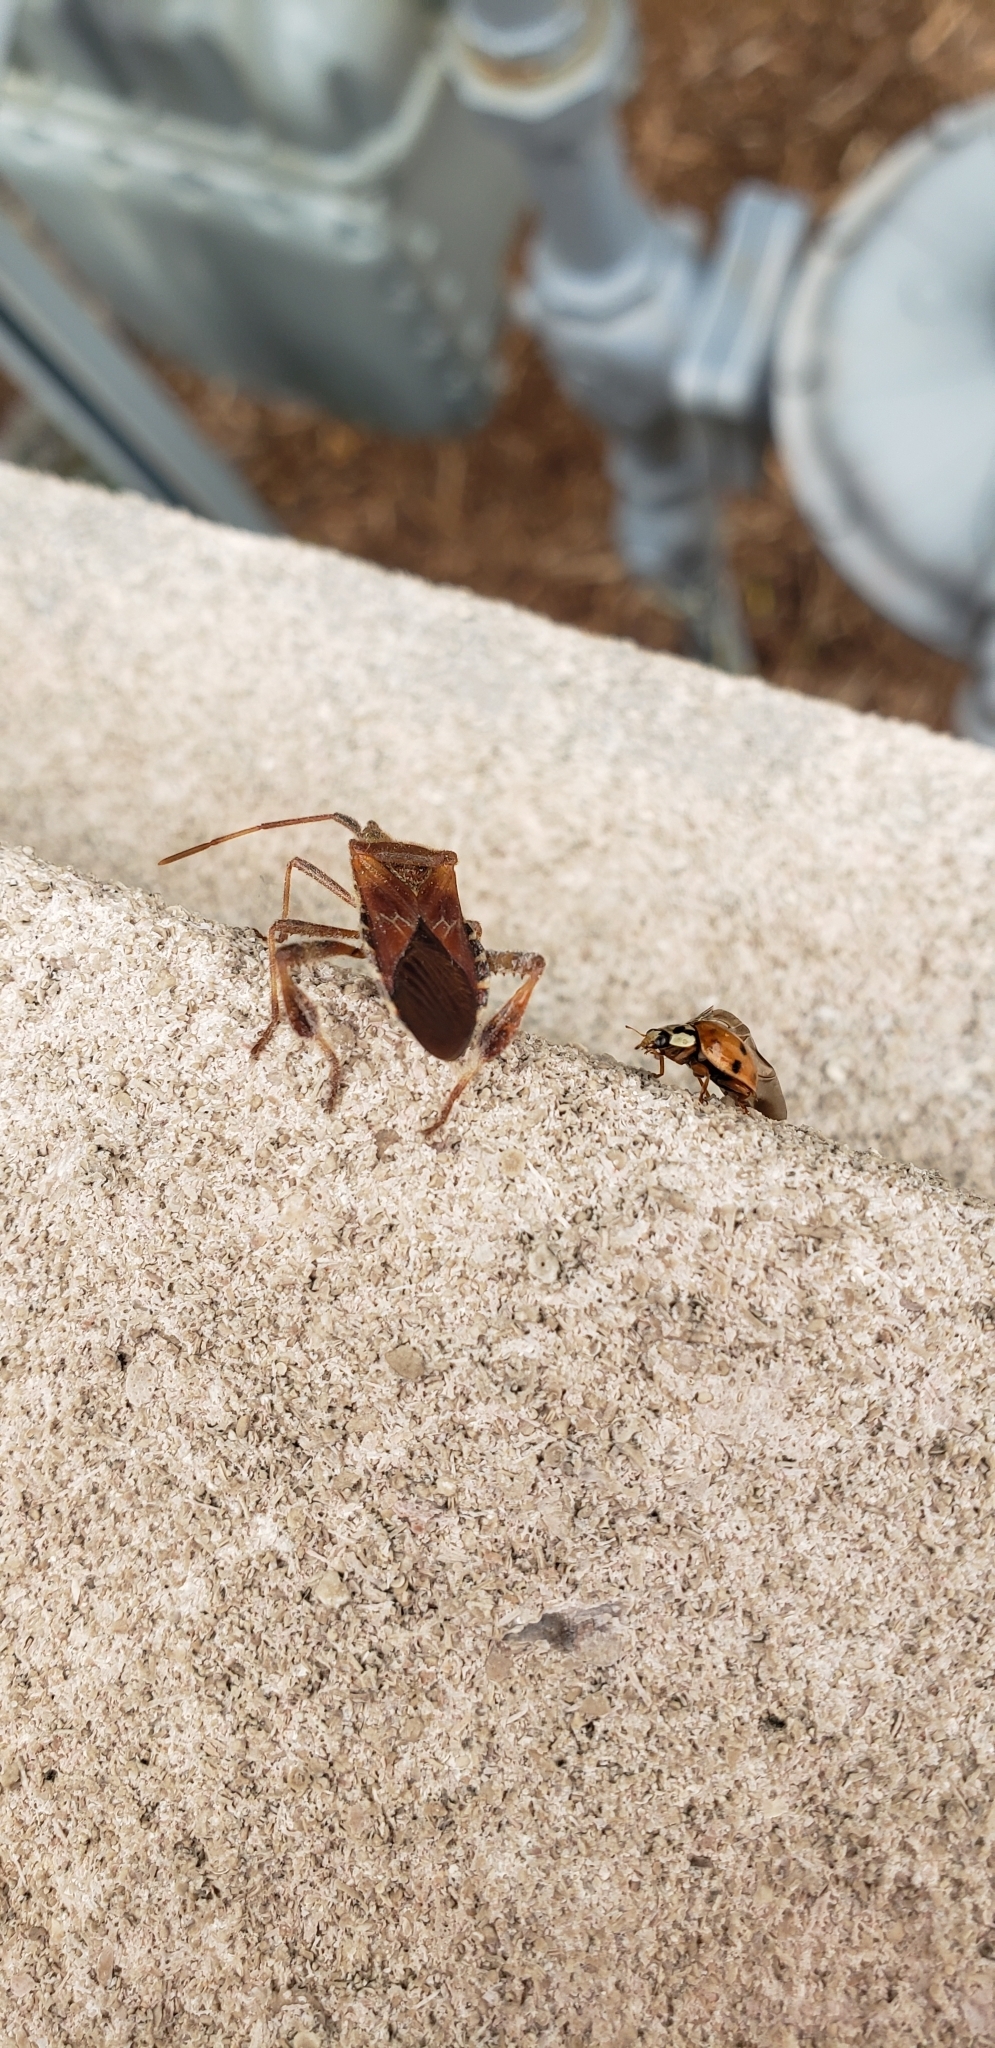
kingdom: Animalia
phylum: Arthropoda
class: Insecta
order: Coleoptera
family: Coccinellidae
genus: Harmonia
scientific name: Harmonia axyridis
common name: Harlequin ladybird
